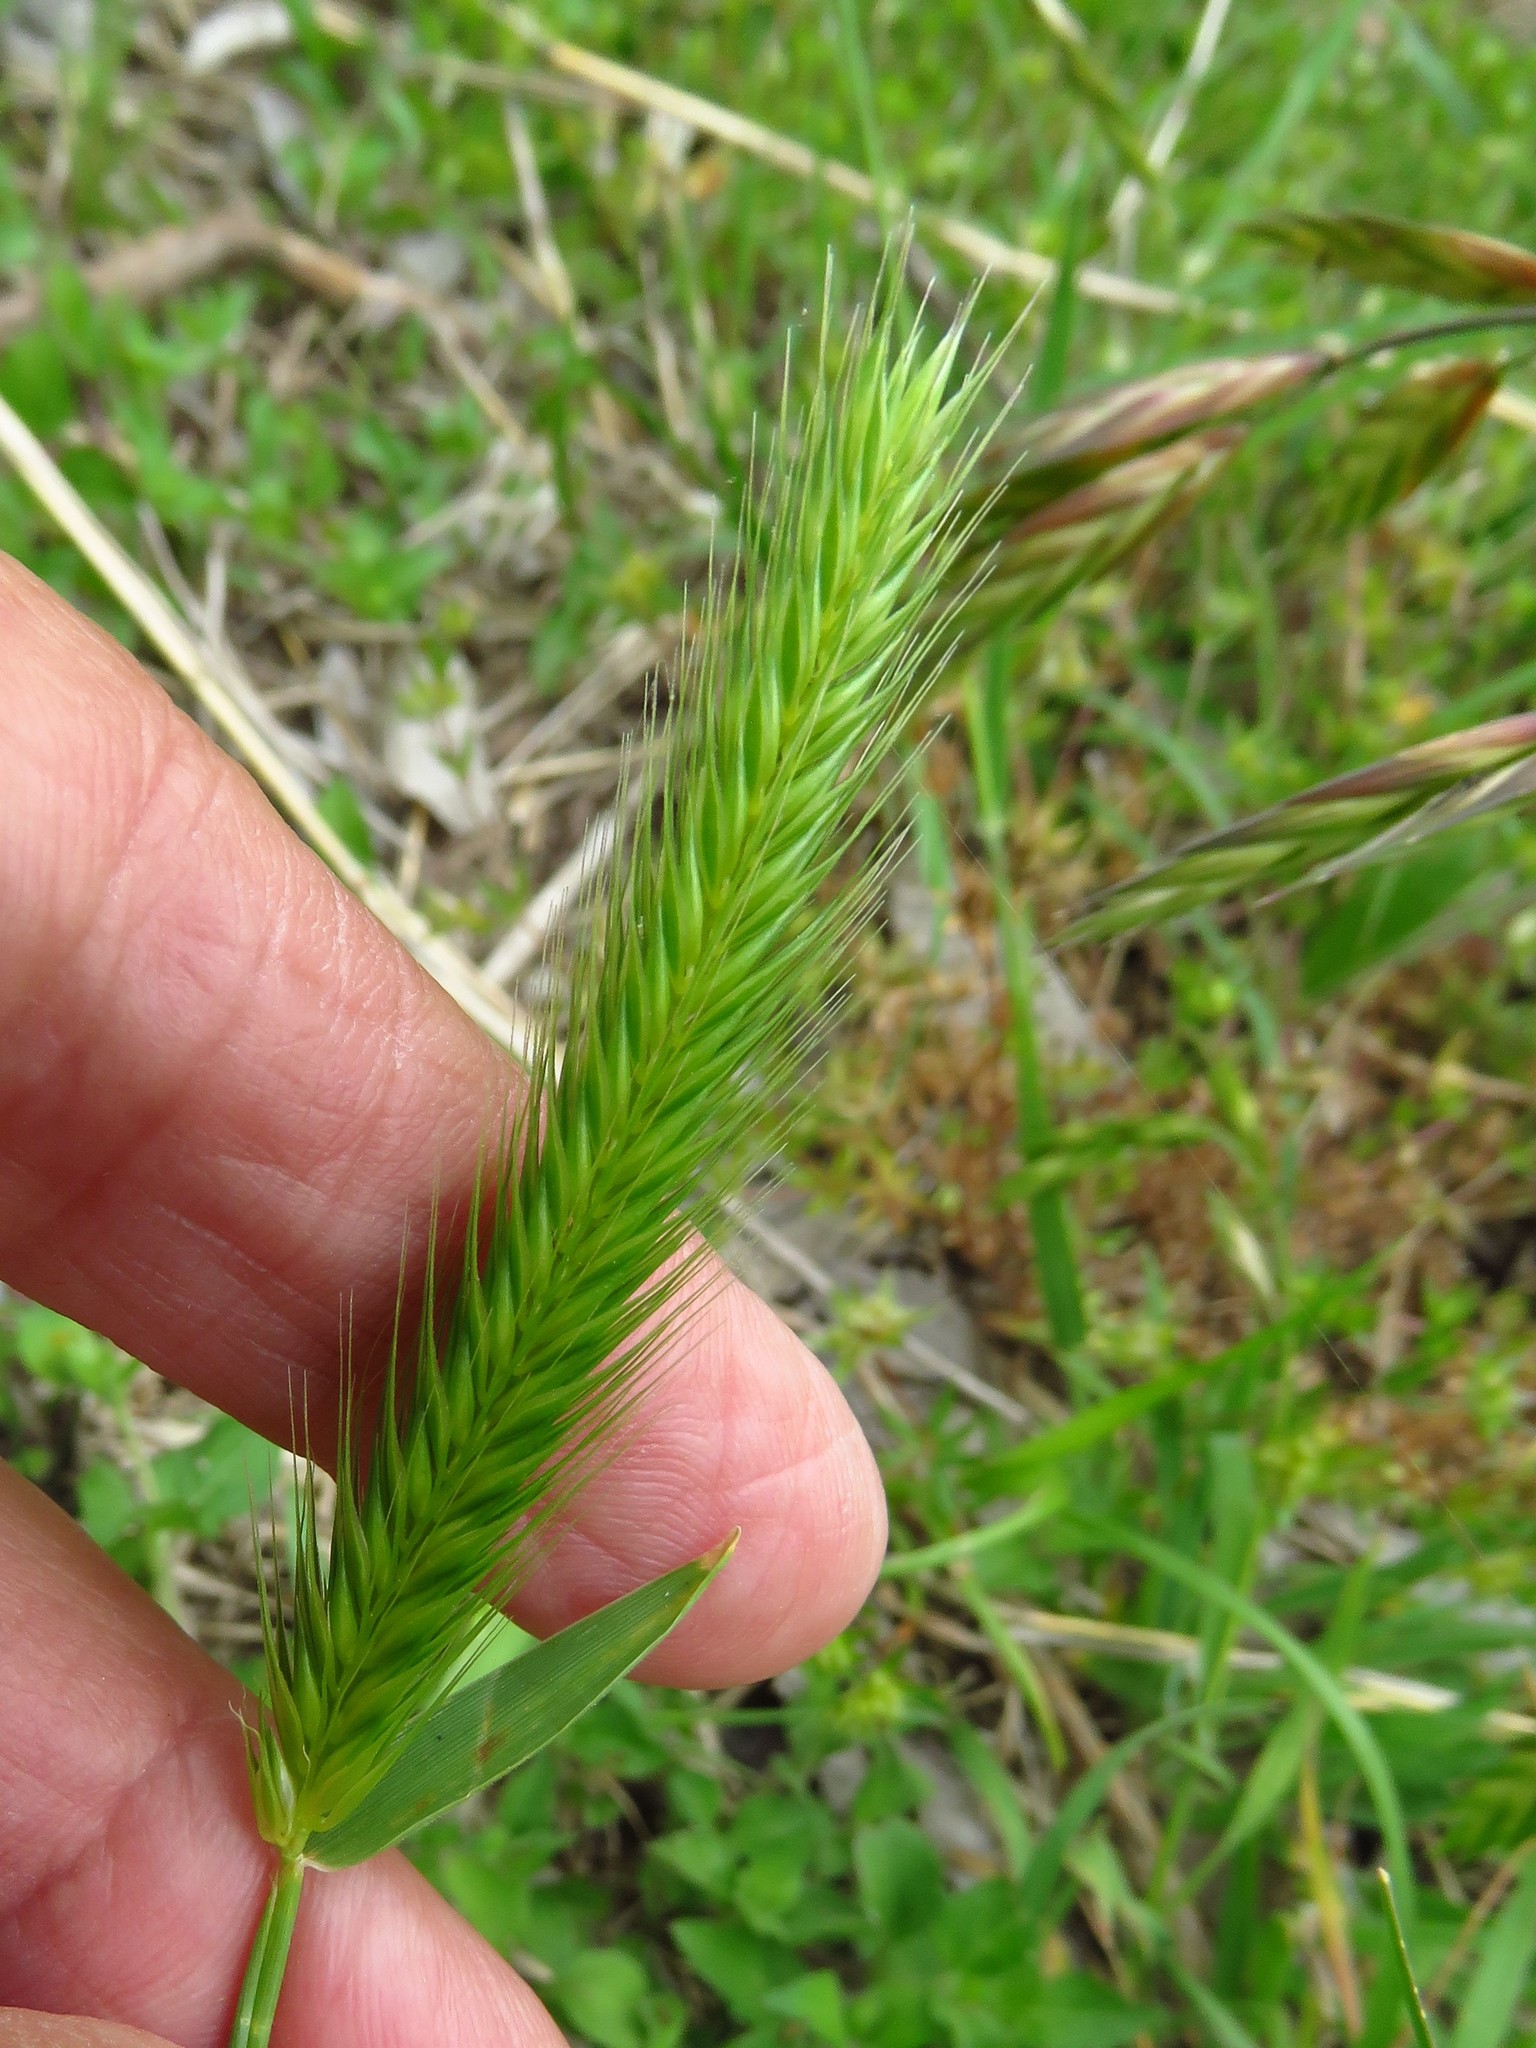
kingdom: Plantae
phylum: Tracheophyta
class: Liliopsida
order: Poales
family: Poaceae
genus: Hordeum
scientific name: Hordeum pusillum
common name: Little barley
